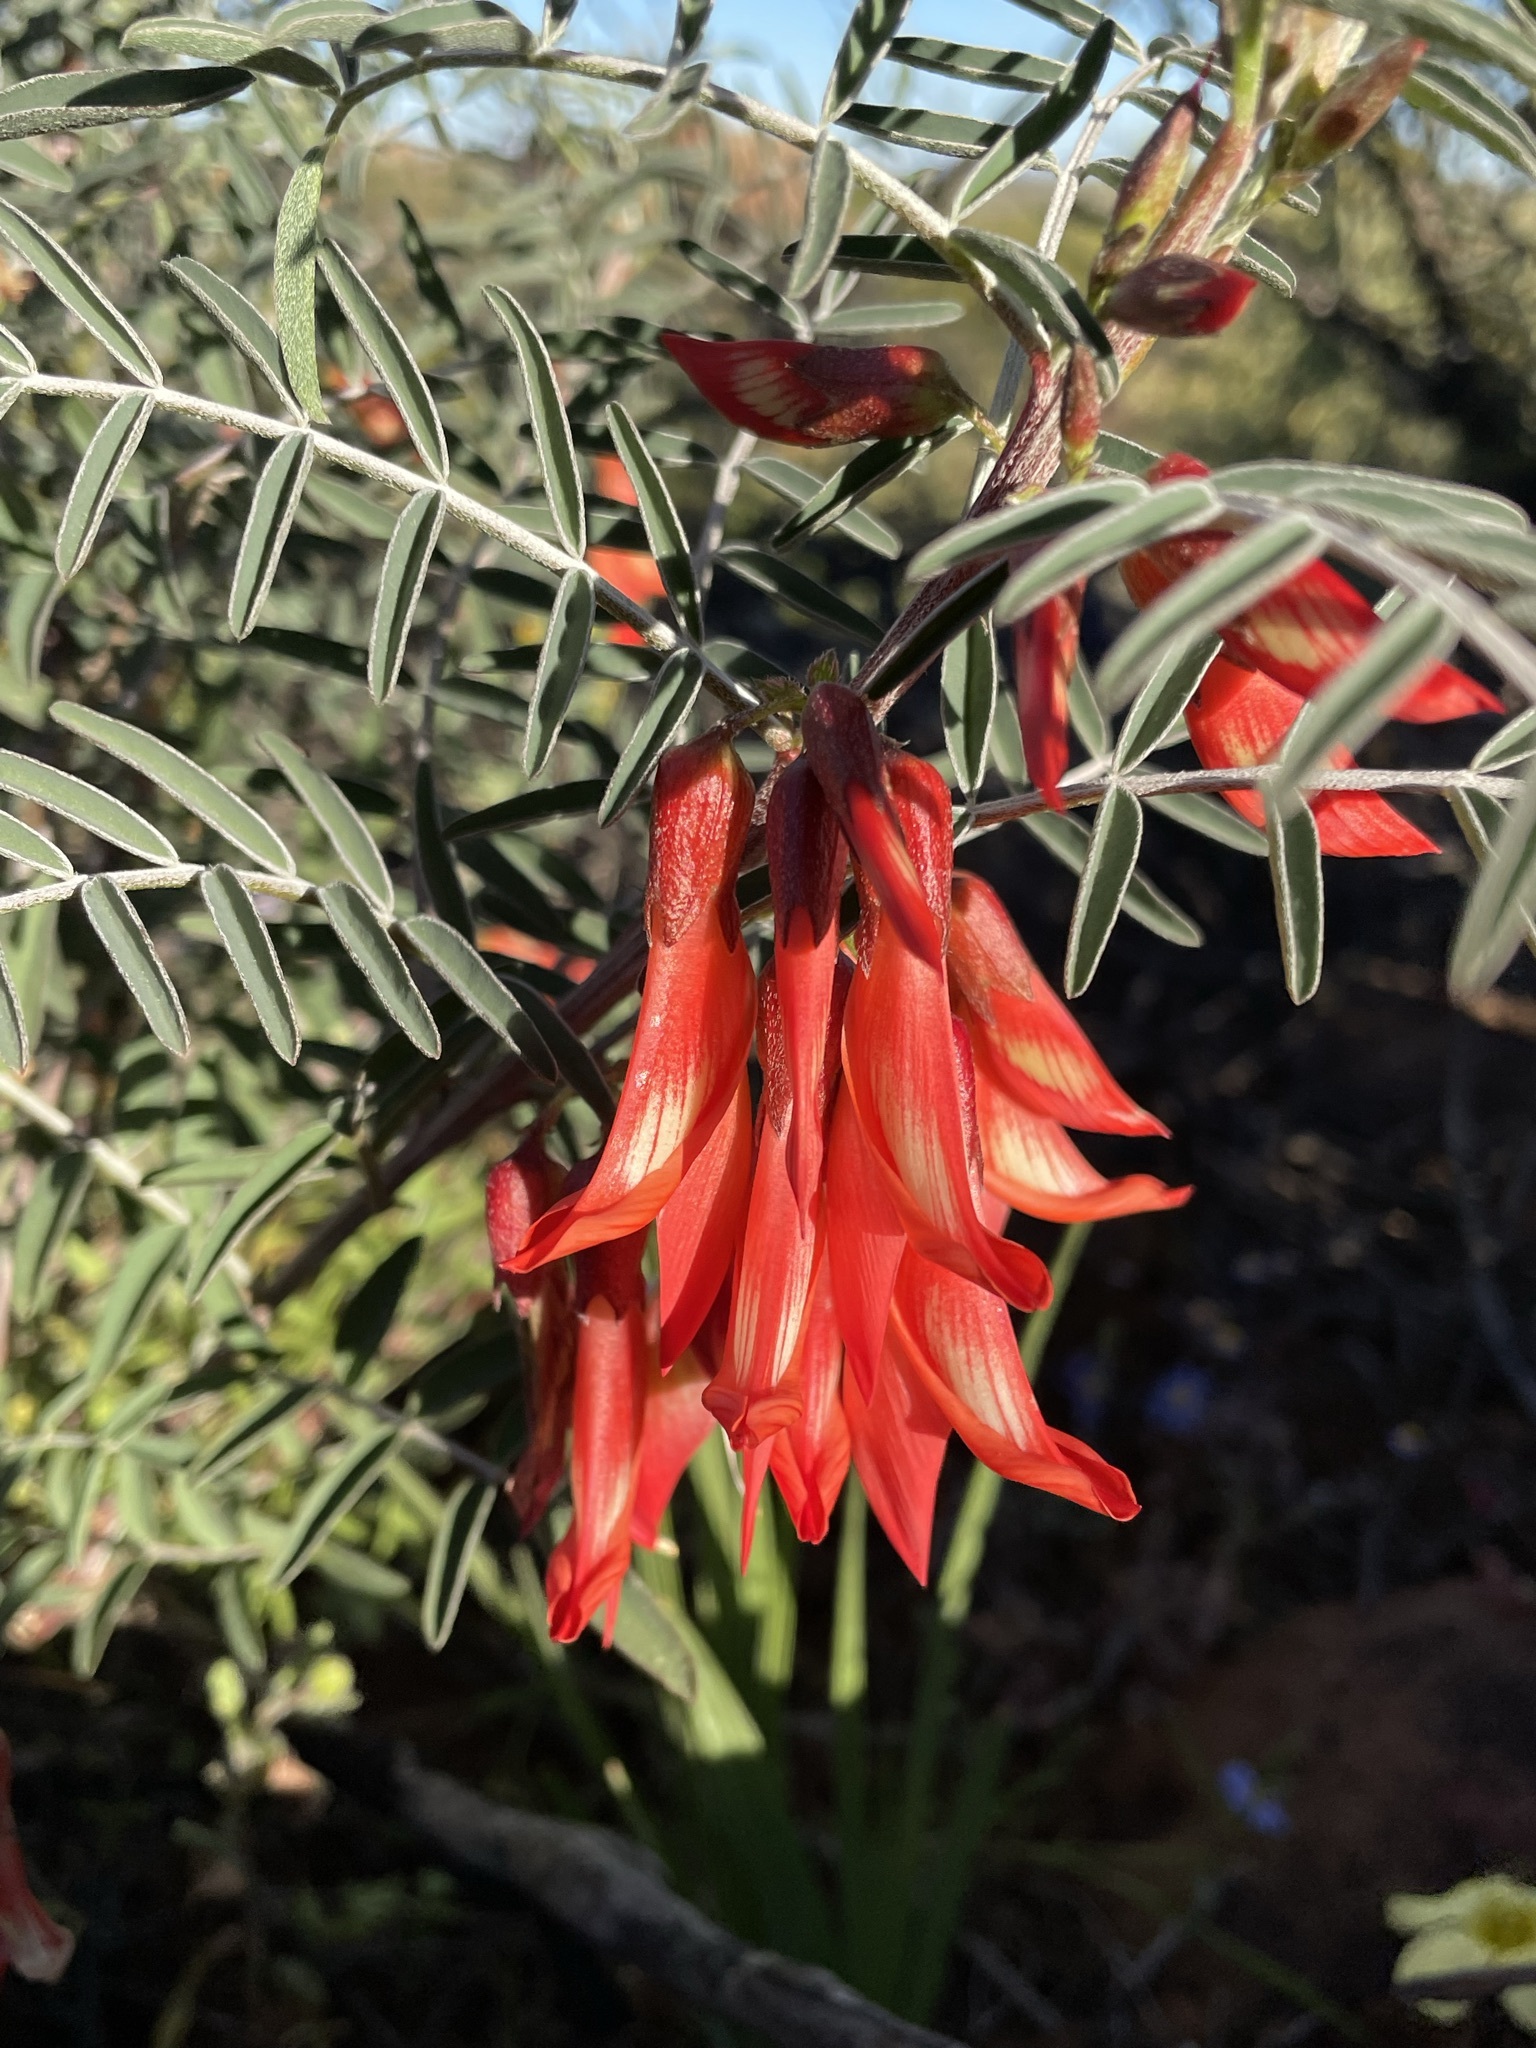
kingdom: Plantae
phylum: Tracheophyta
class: Magnoliopsida
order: Fabales
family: Fabaceae
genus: Lessertia
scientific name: Lessertia frutescens
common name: Balloon-pea
